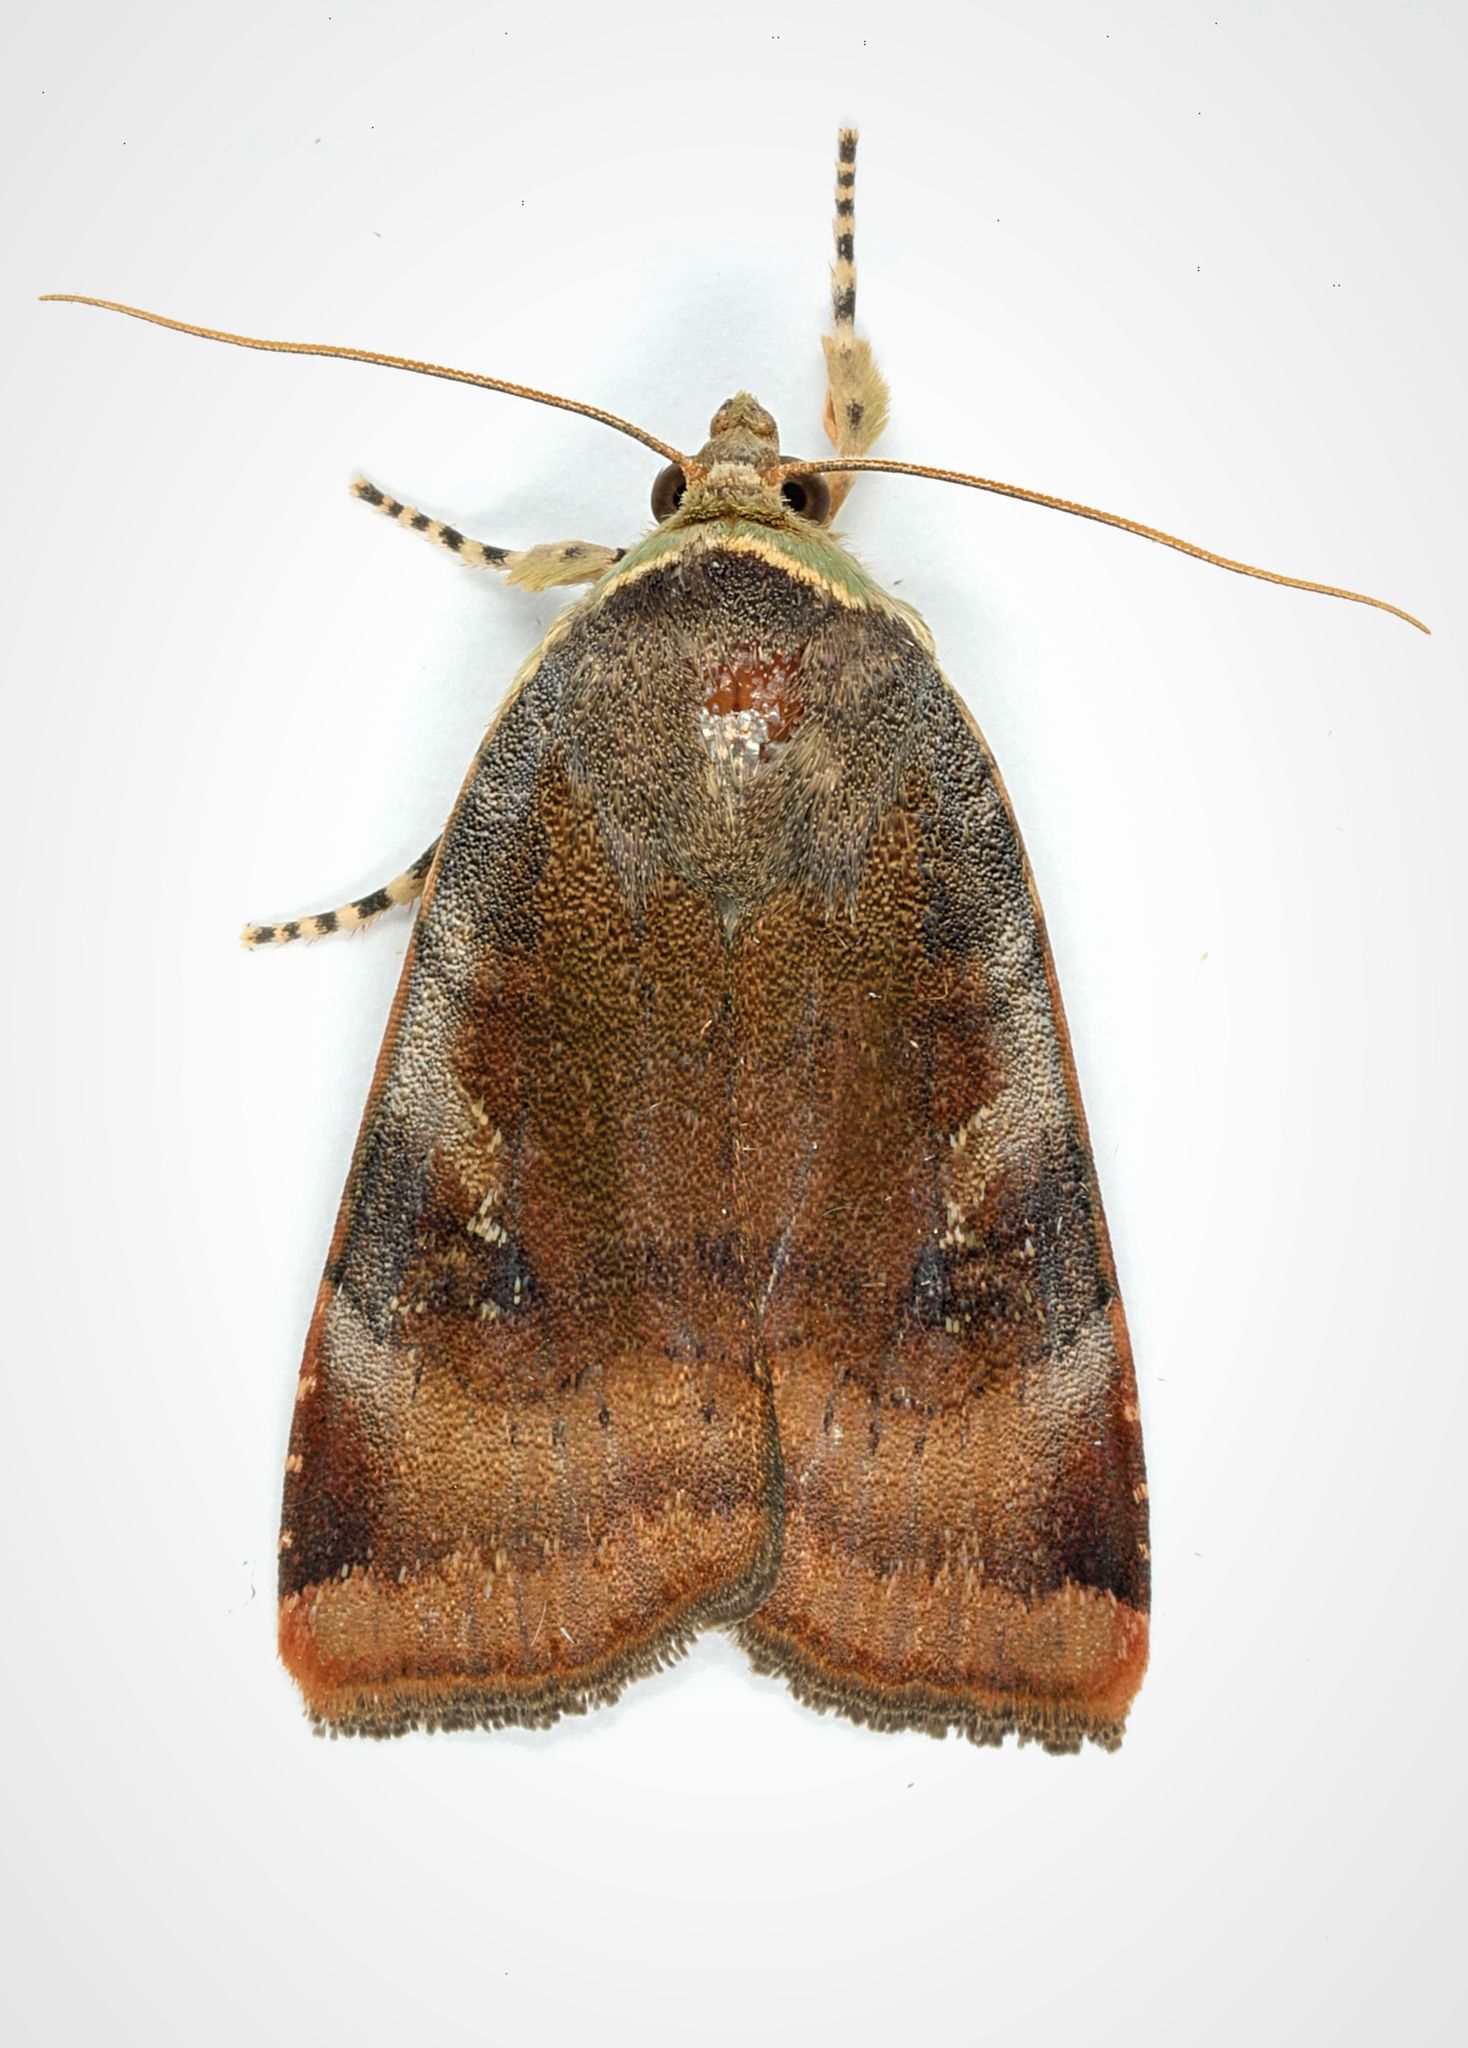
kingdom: Animalia
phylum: Arthropoda
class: Insecta
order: Lepidoptera
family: Noctuidae
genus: Noctua
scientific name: Noctua janthe
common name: Lesser broad-bordered yellow underwing
